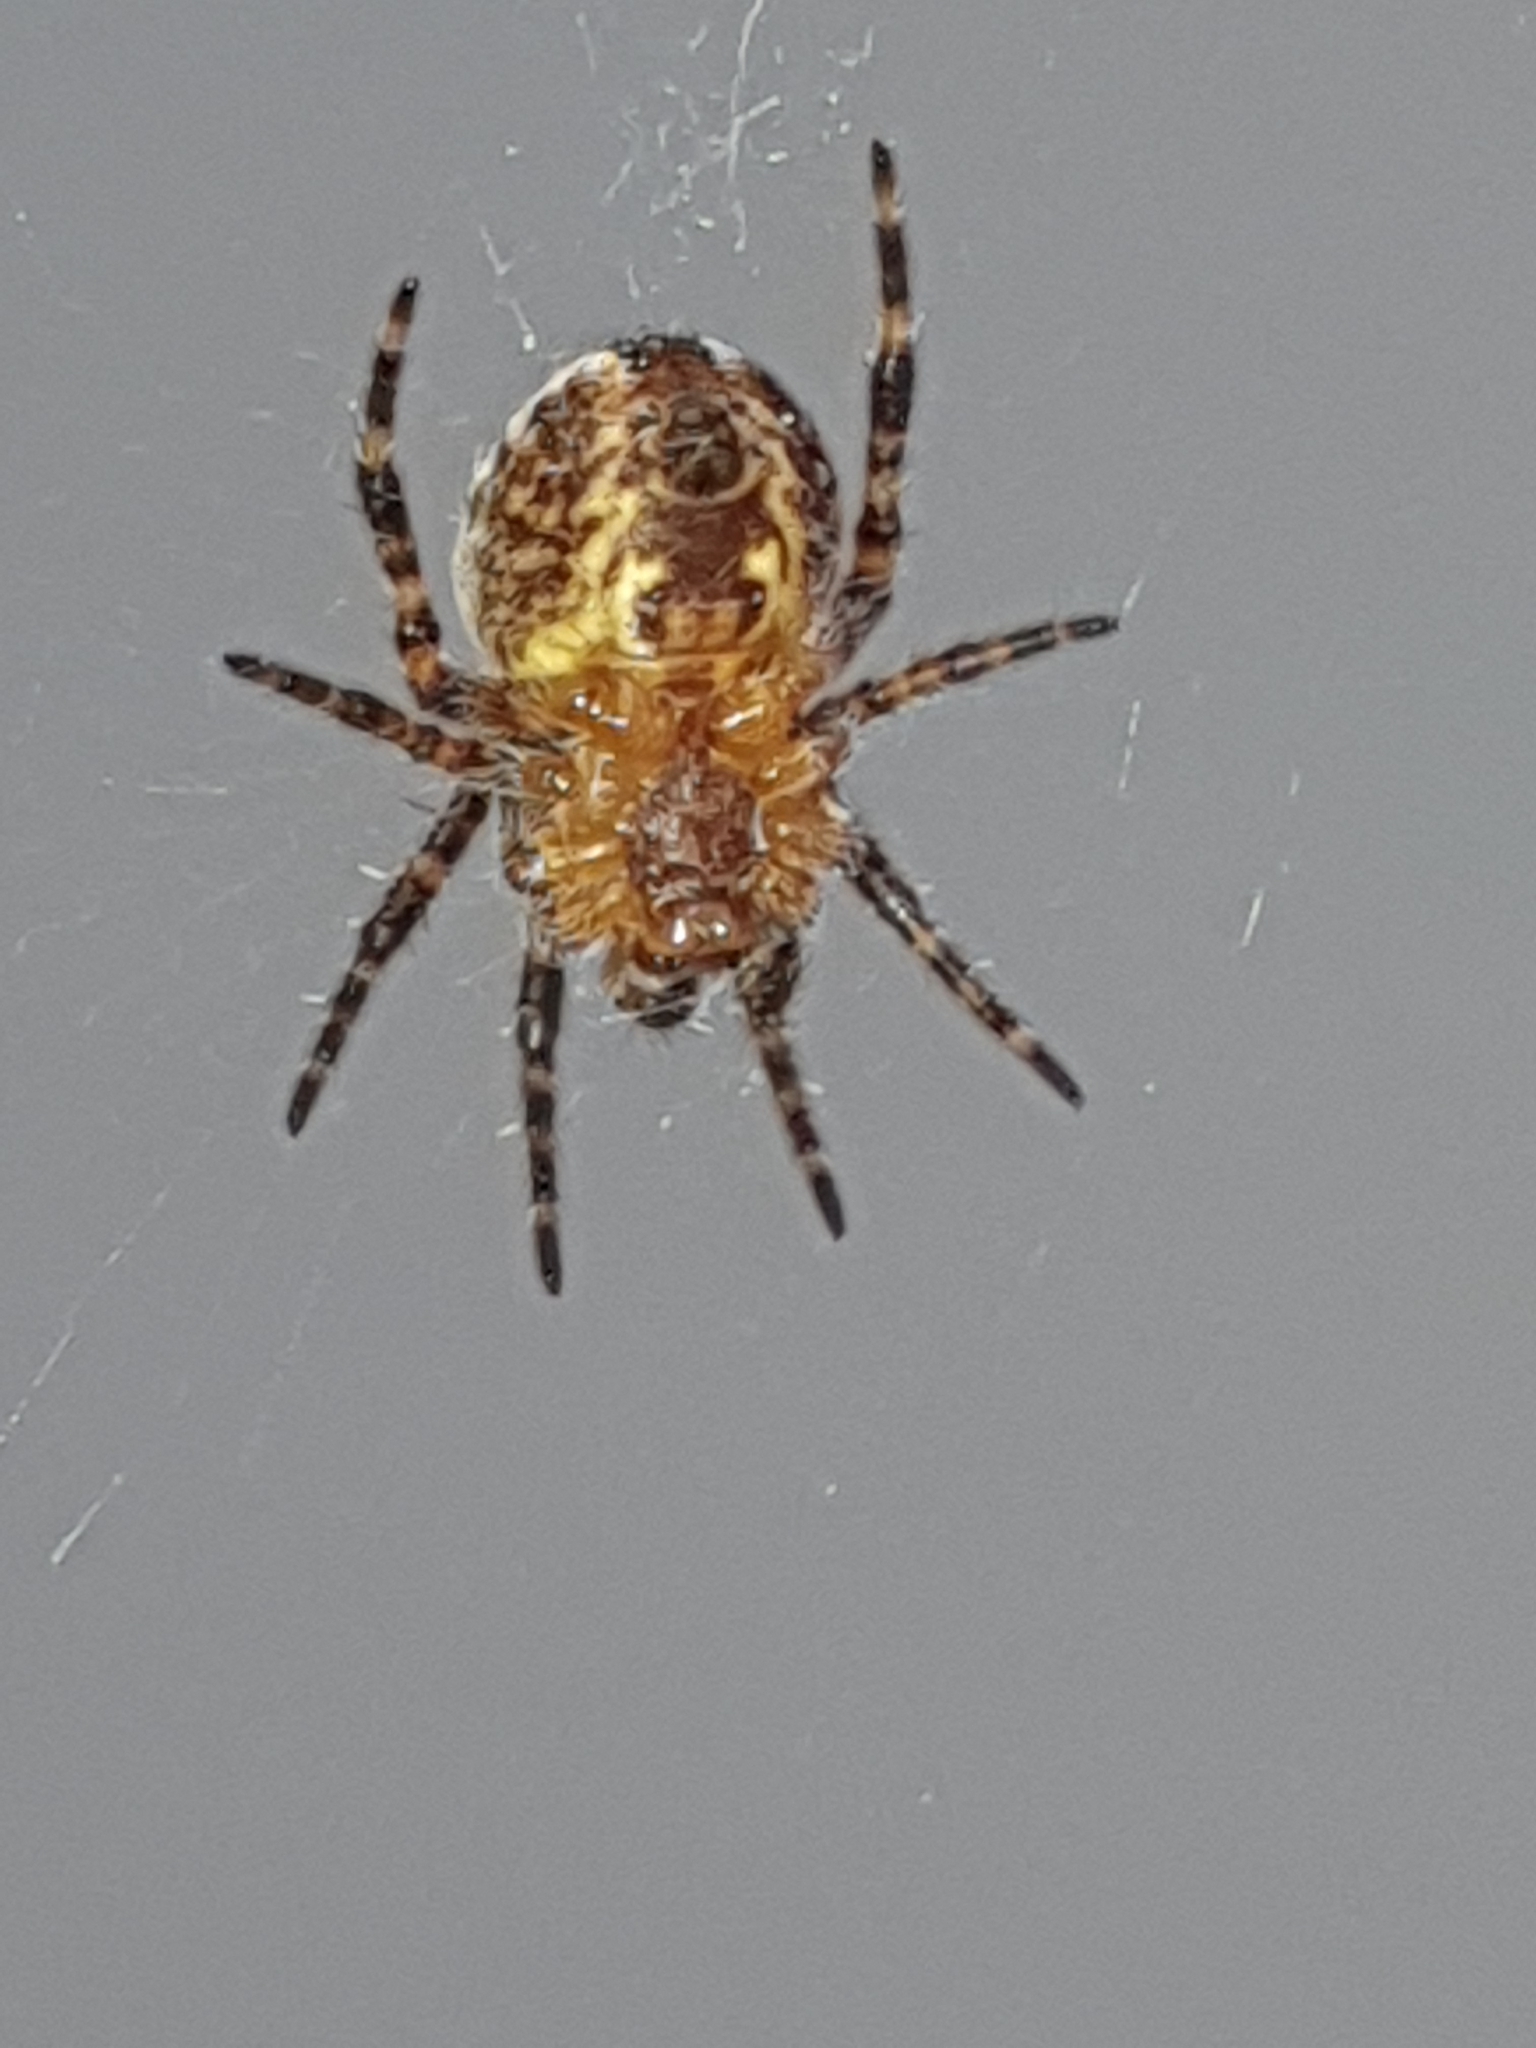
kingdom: Animalia
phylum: Arthropoda
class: Arachnida
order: Araneae
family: Araneidae
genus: Araneus
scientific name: Araneus diadematus
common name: Cross orbweaver
